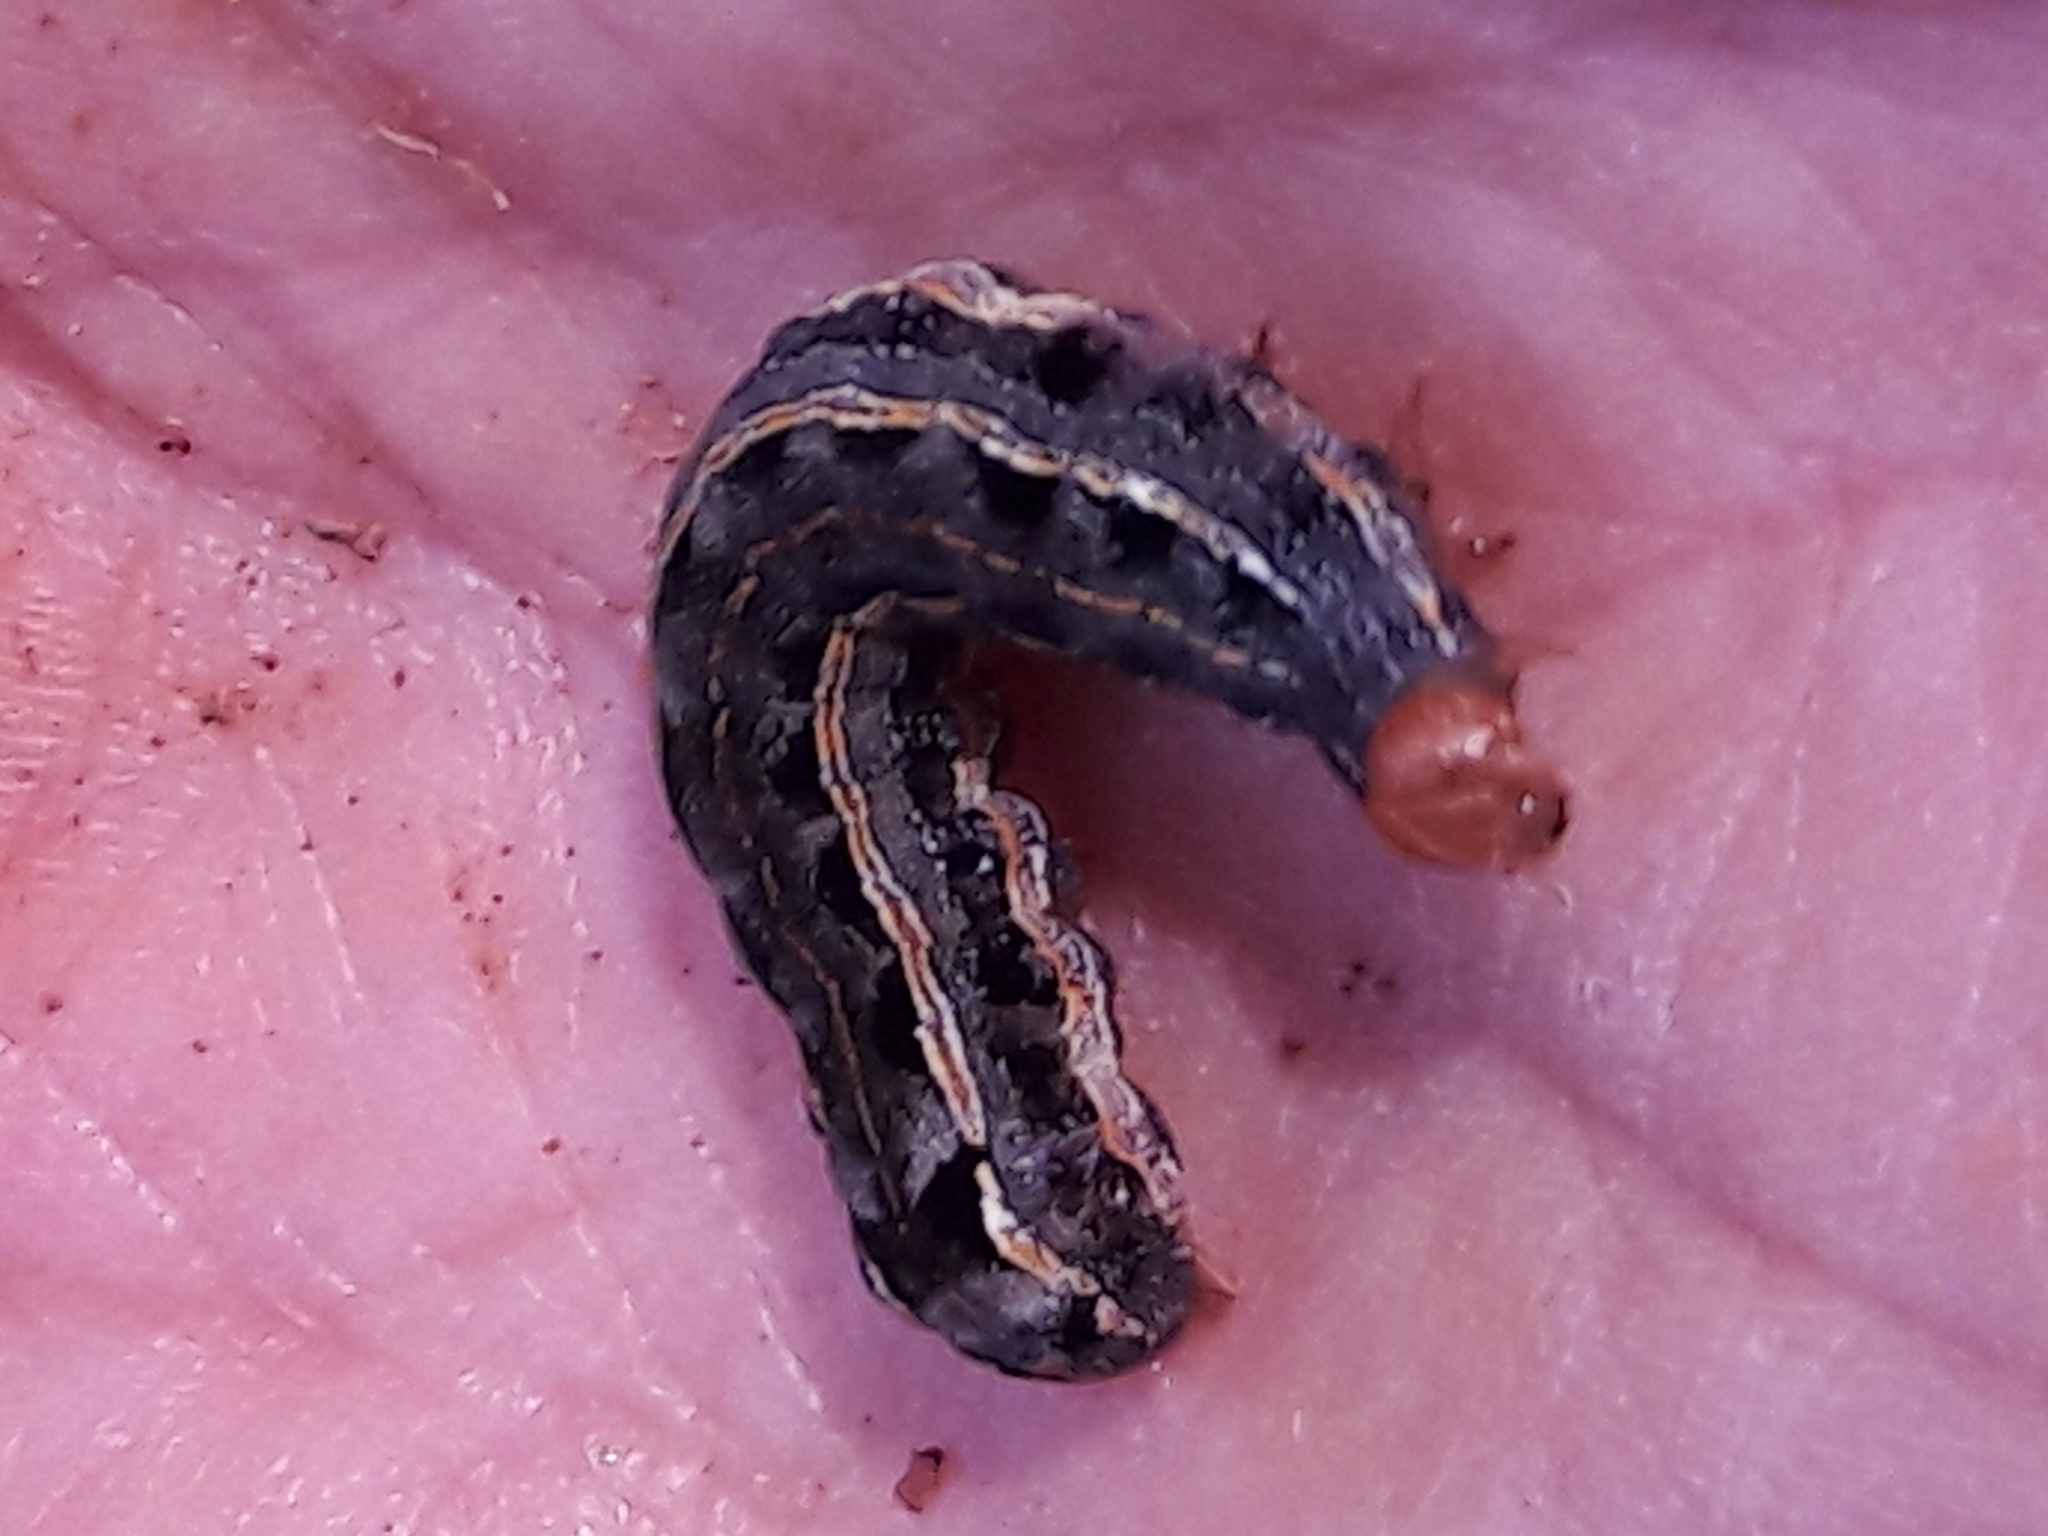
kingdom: Animalia
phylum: Arthropoda
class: Insecta
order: Lepidoptera
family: Noctuidae
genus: Spodoptera
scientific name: Spodoptera eridania
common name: Southern army worm
